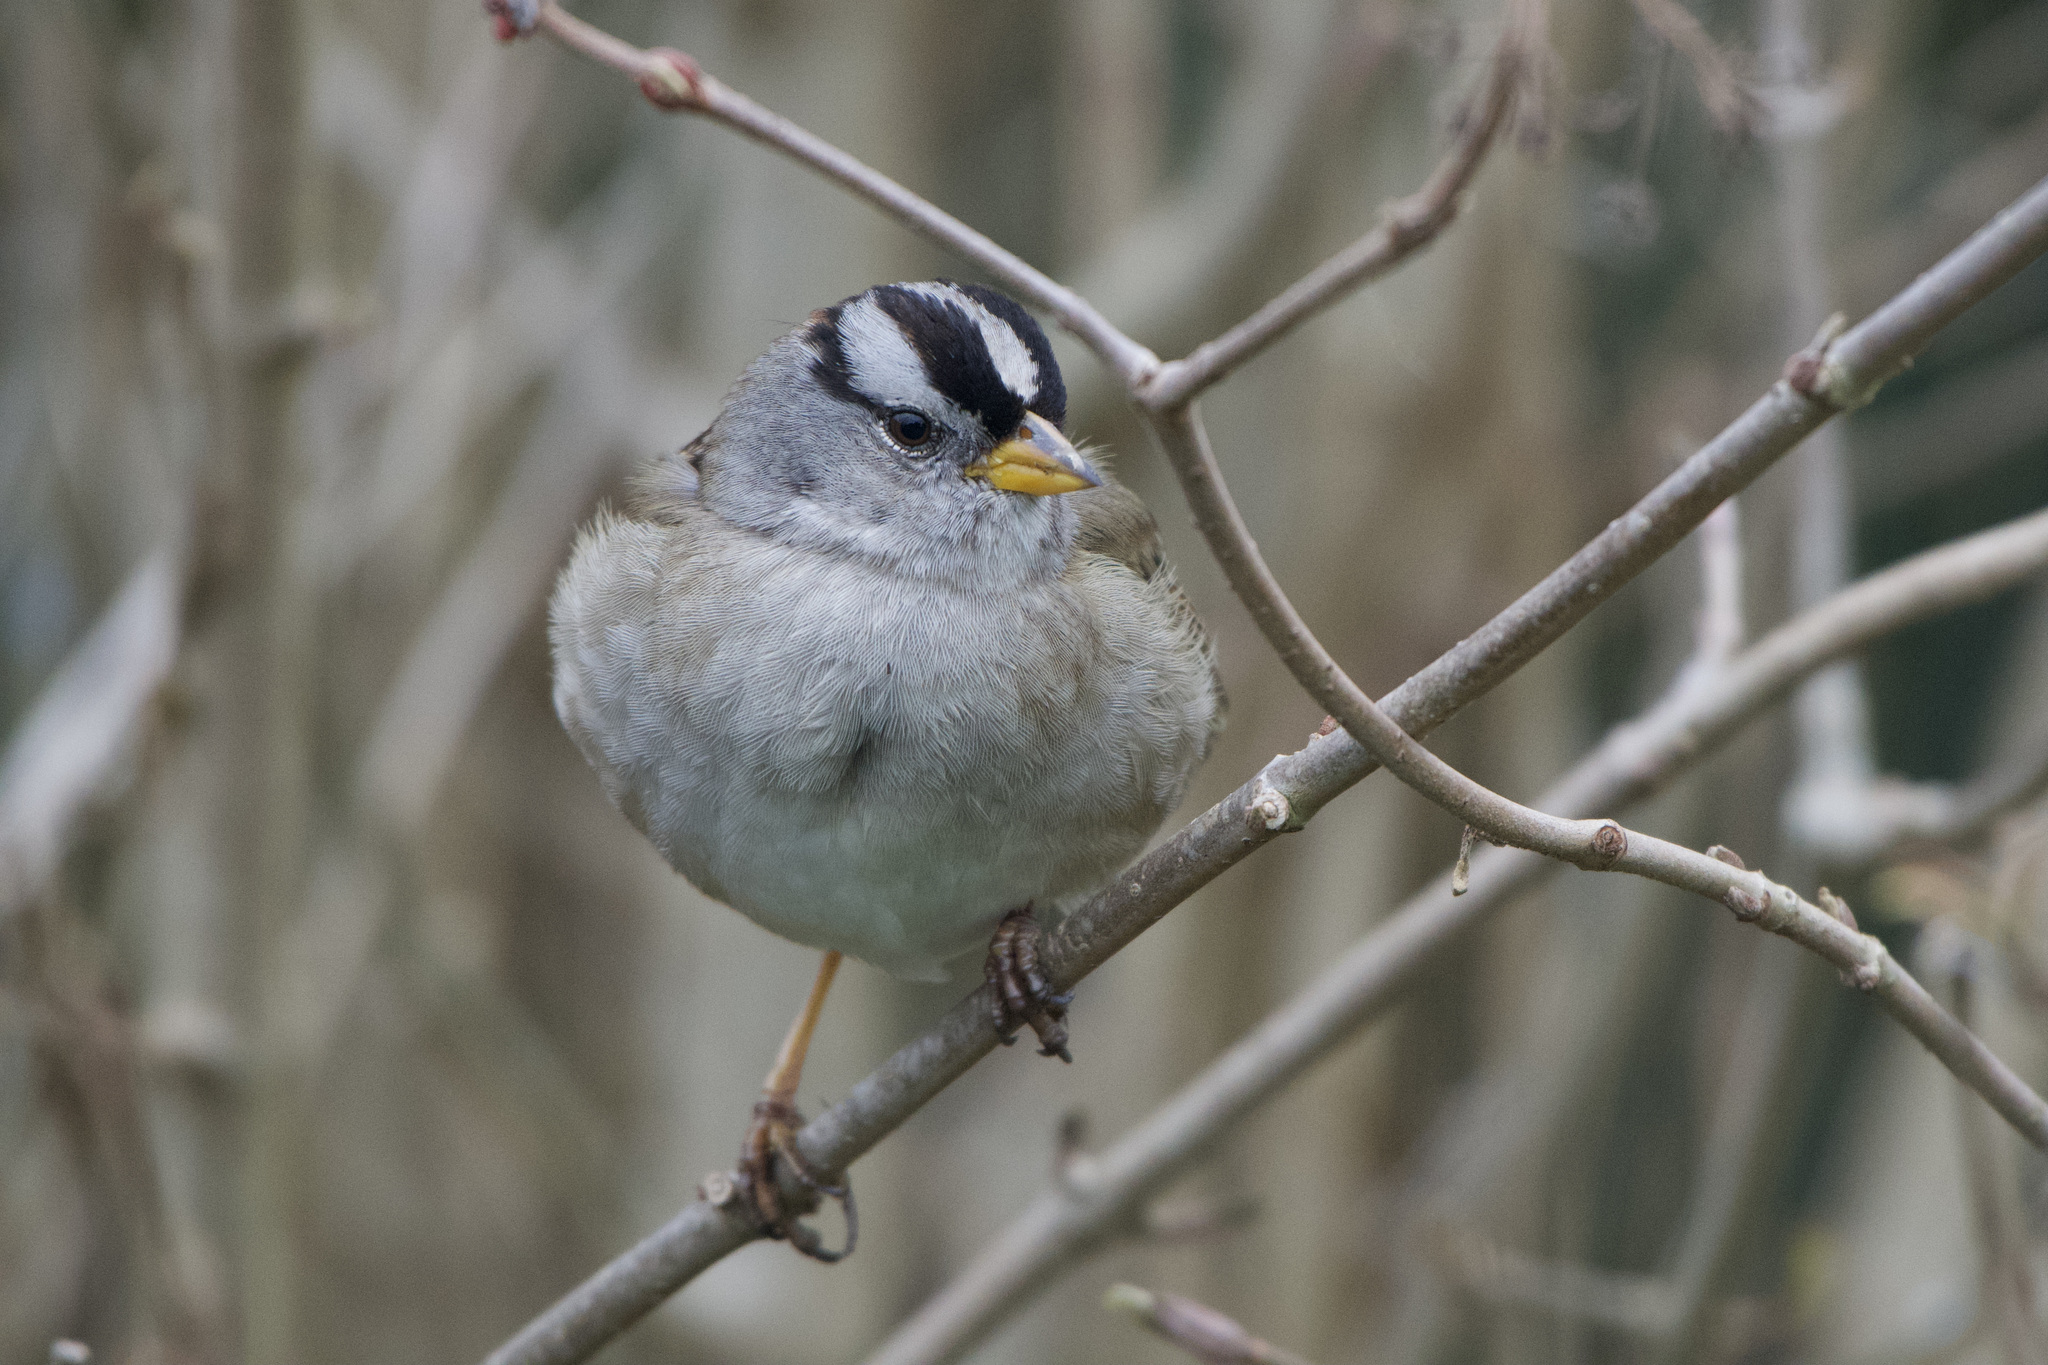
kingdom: Animalia
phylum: Chordata
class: Aves
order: Passeriformes
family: Passerellidae
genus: Zonotrichia
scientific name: Zonotrichia leucophrys
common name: White-crowned sparrow
